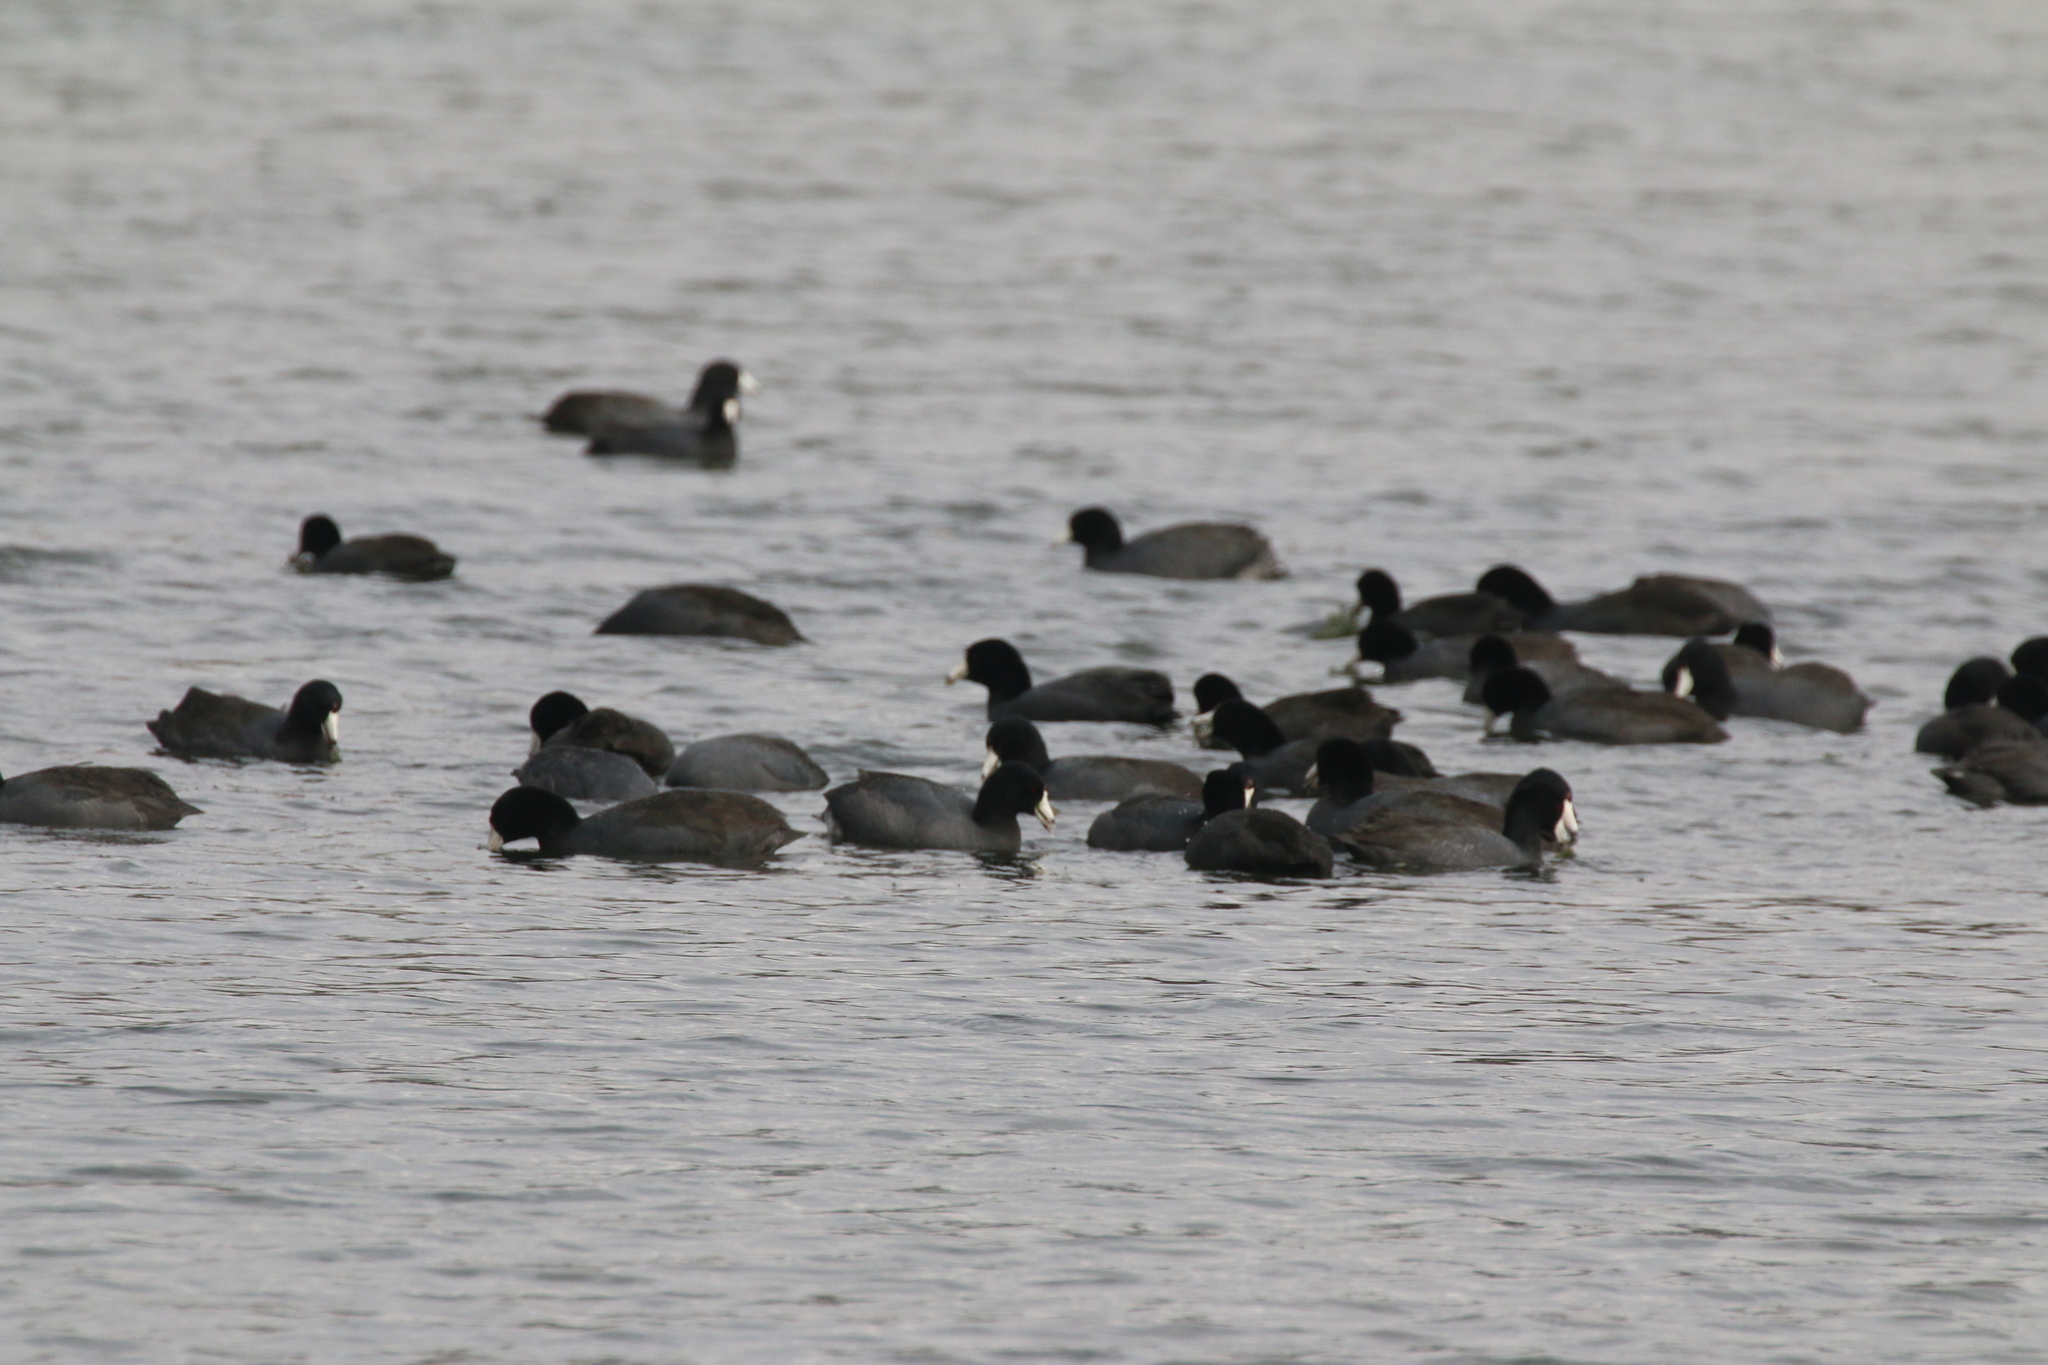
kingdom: Animalia
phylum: Chordata
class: Aves
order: Gruiformes
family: Rallidae
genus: Fulica
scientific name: Fulica americana
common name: American coot
